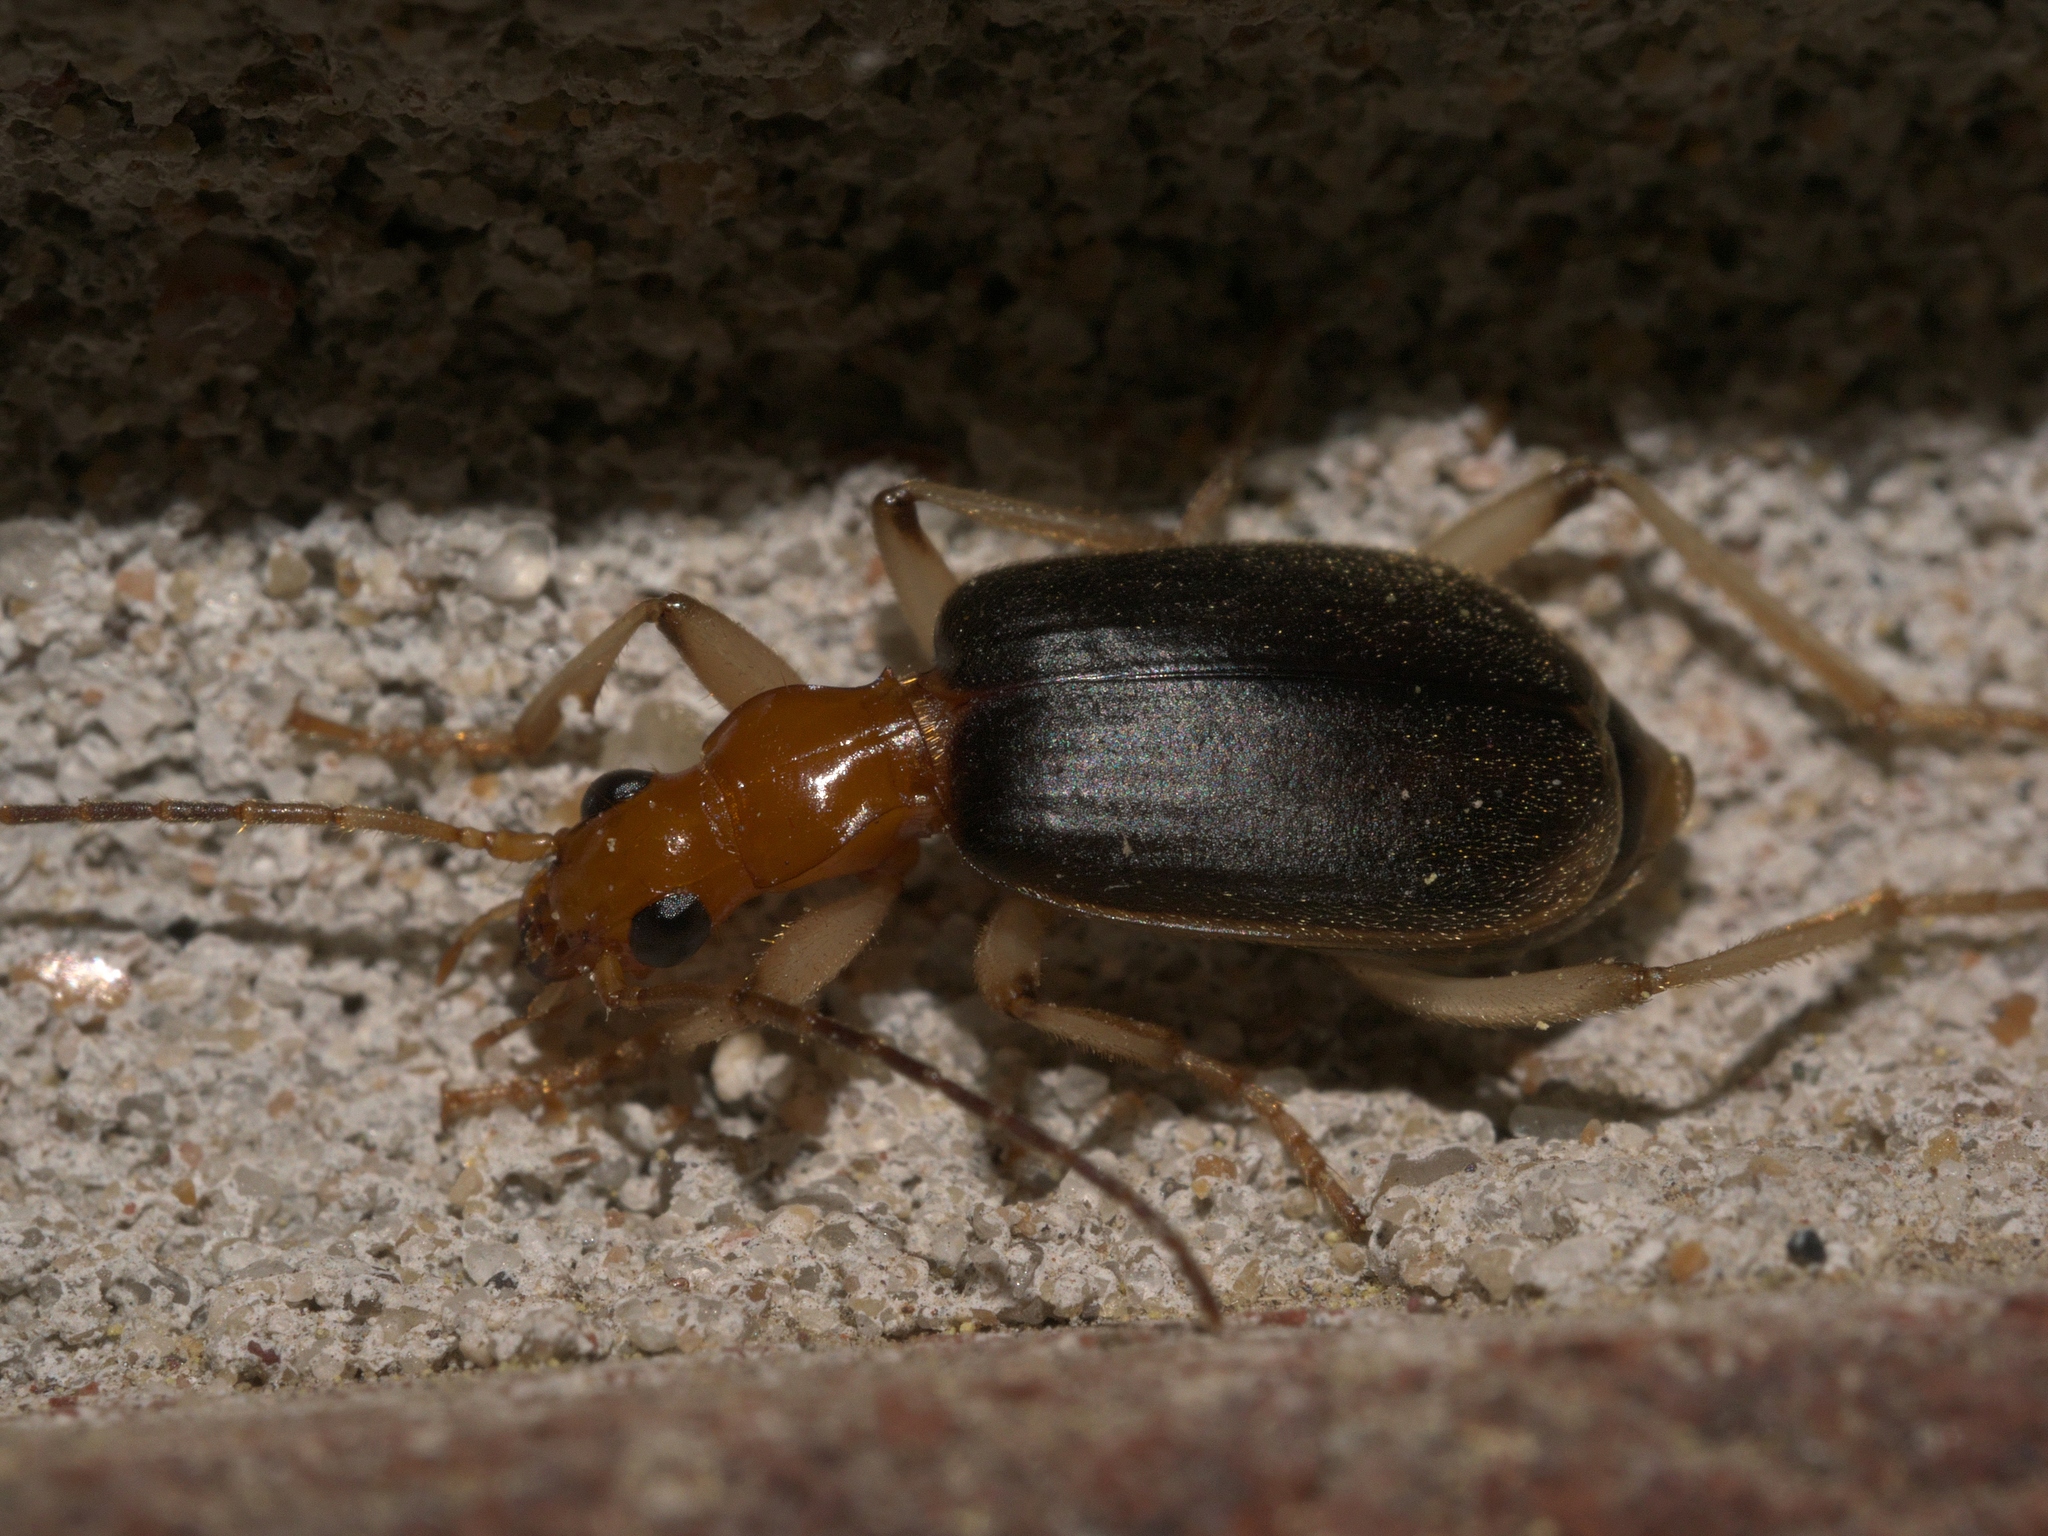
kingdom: Animalia
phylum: Arthropoda
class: Insecta
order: Coleoptera
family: Carabidae
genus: Brachinus
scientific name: Brachinus adustipennis
